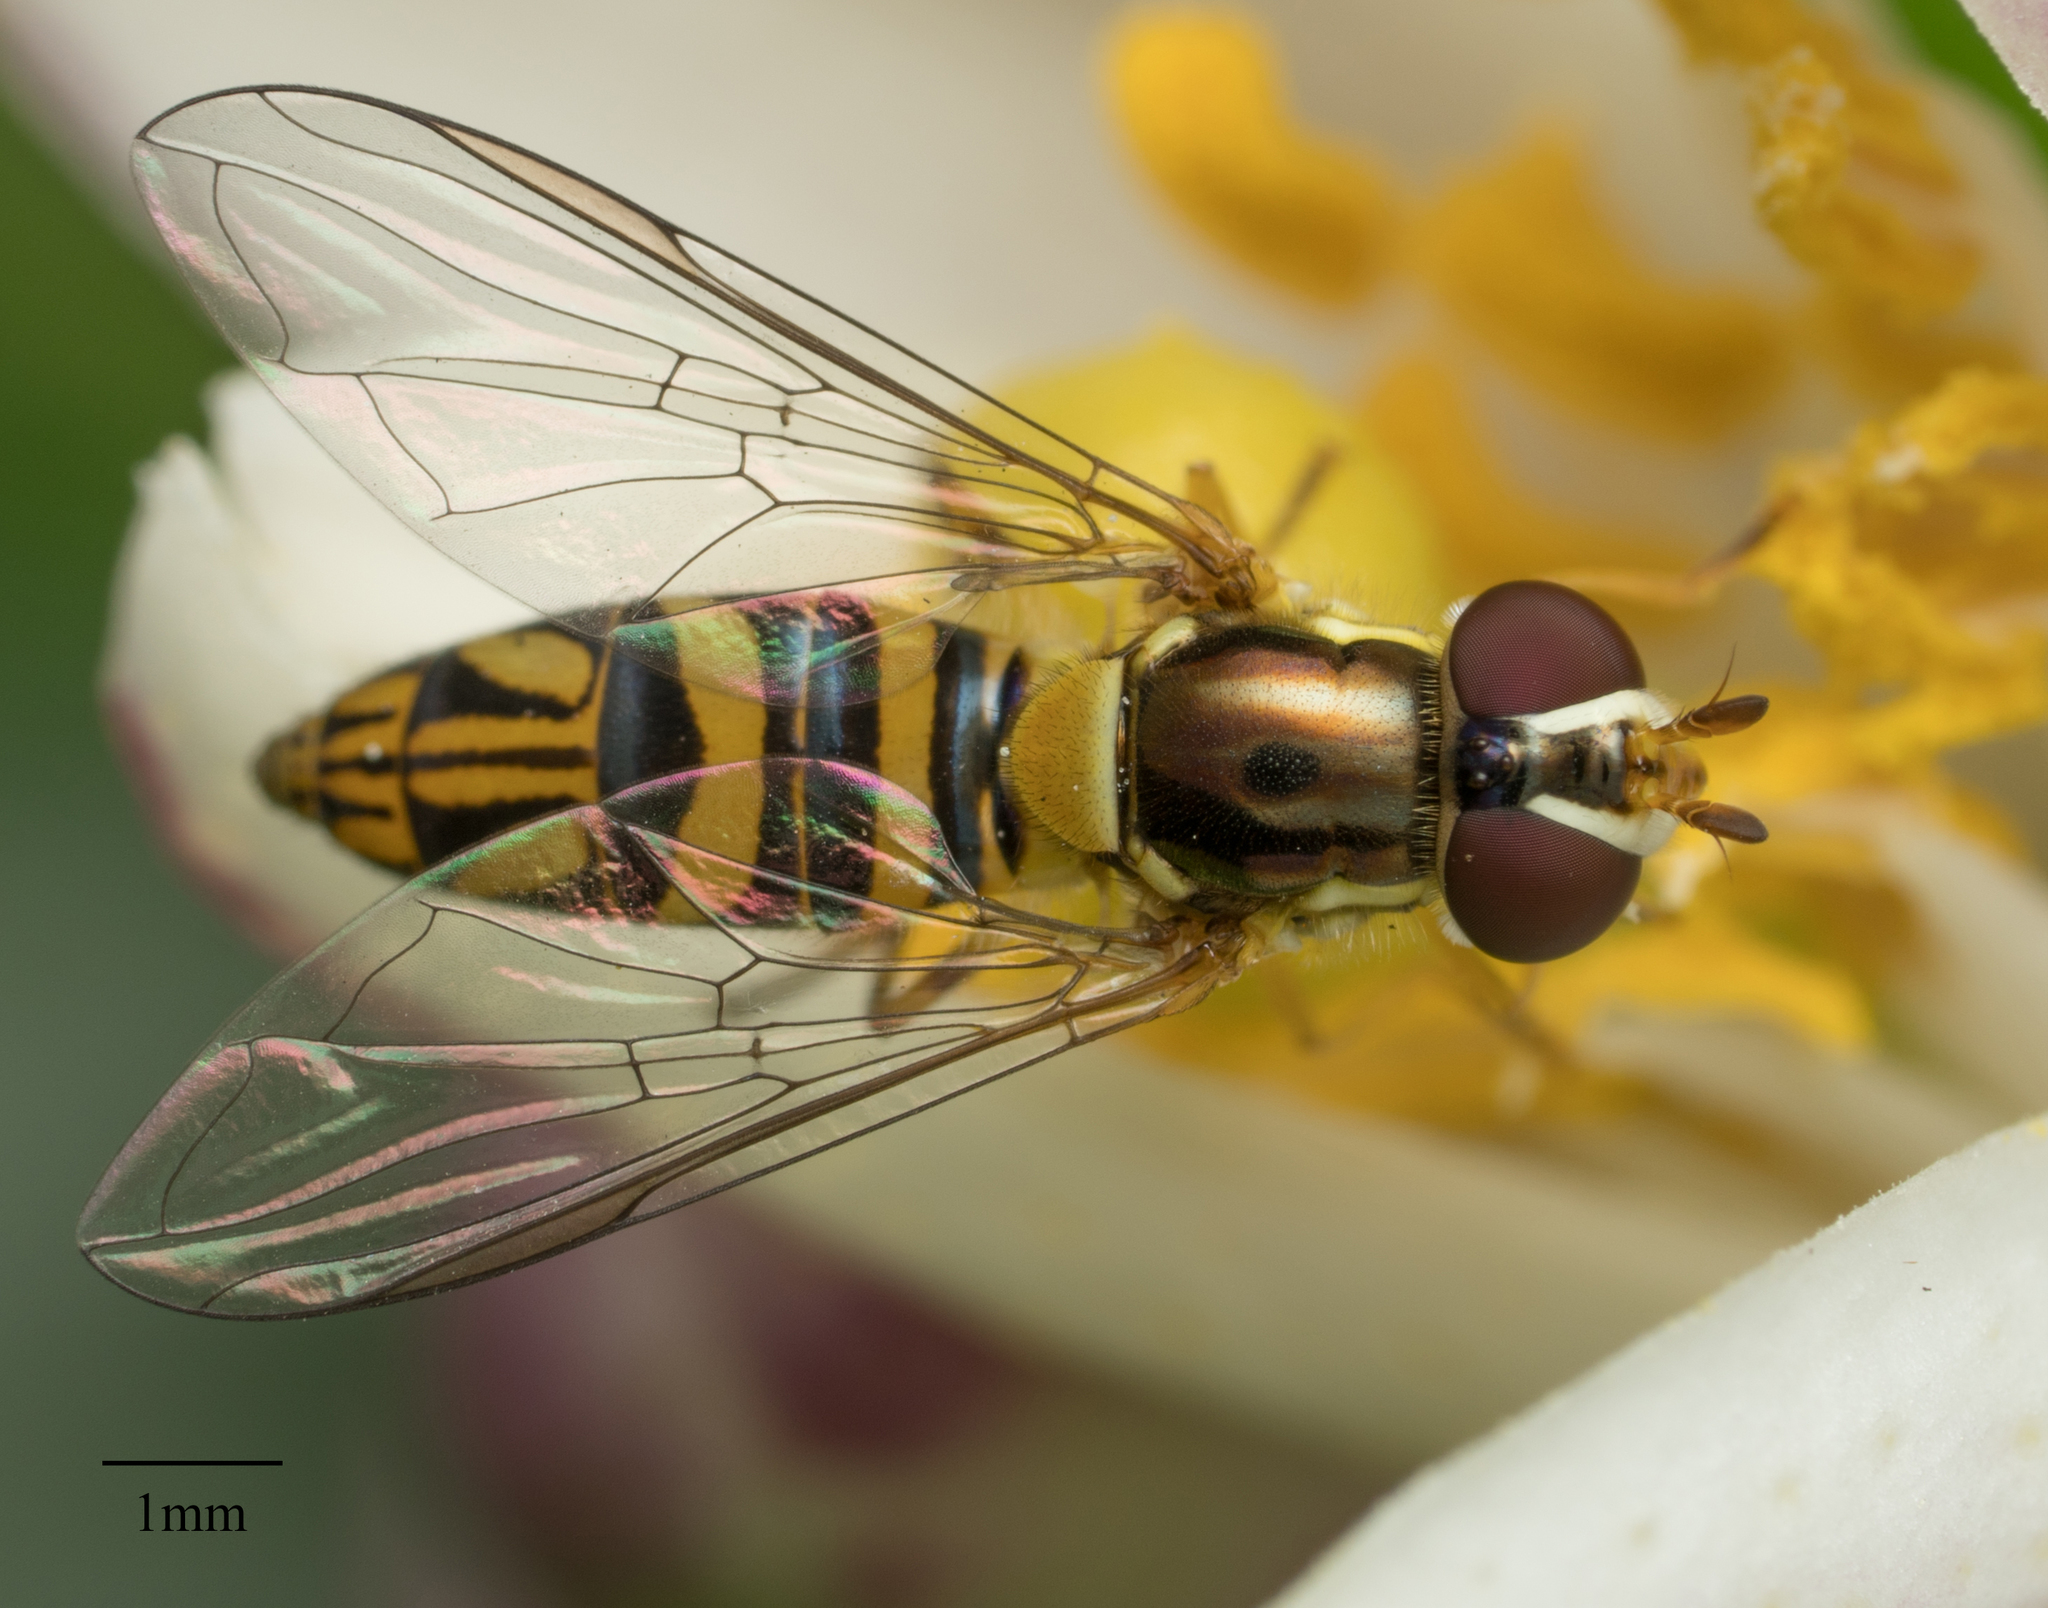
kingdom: Animalia
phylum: Arthropoda
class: Insecta
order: Diptera
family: Syrphidae
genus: Allograpta
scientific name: Allograpta obliqua
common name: Common oblique syrphid
